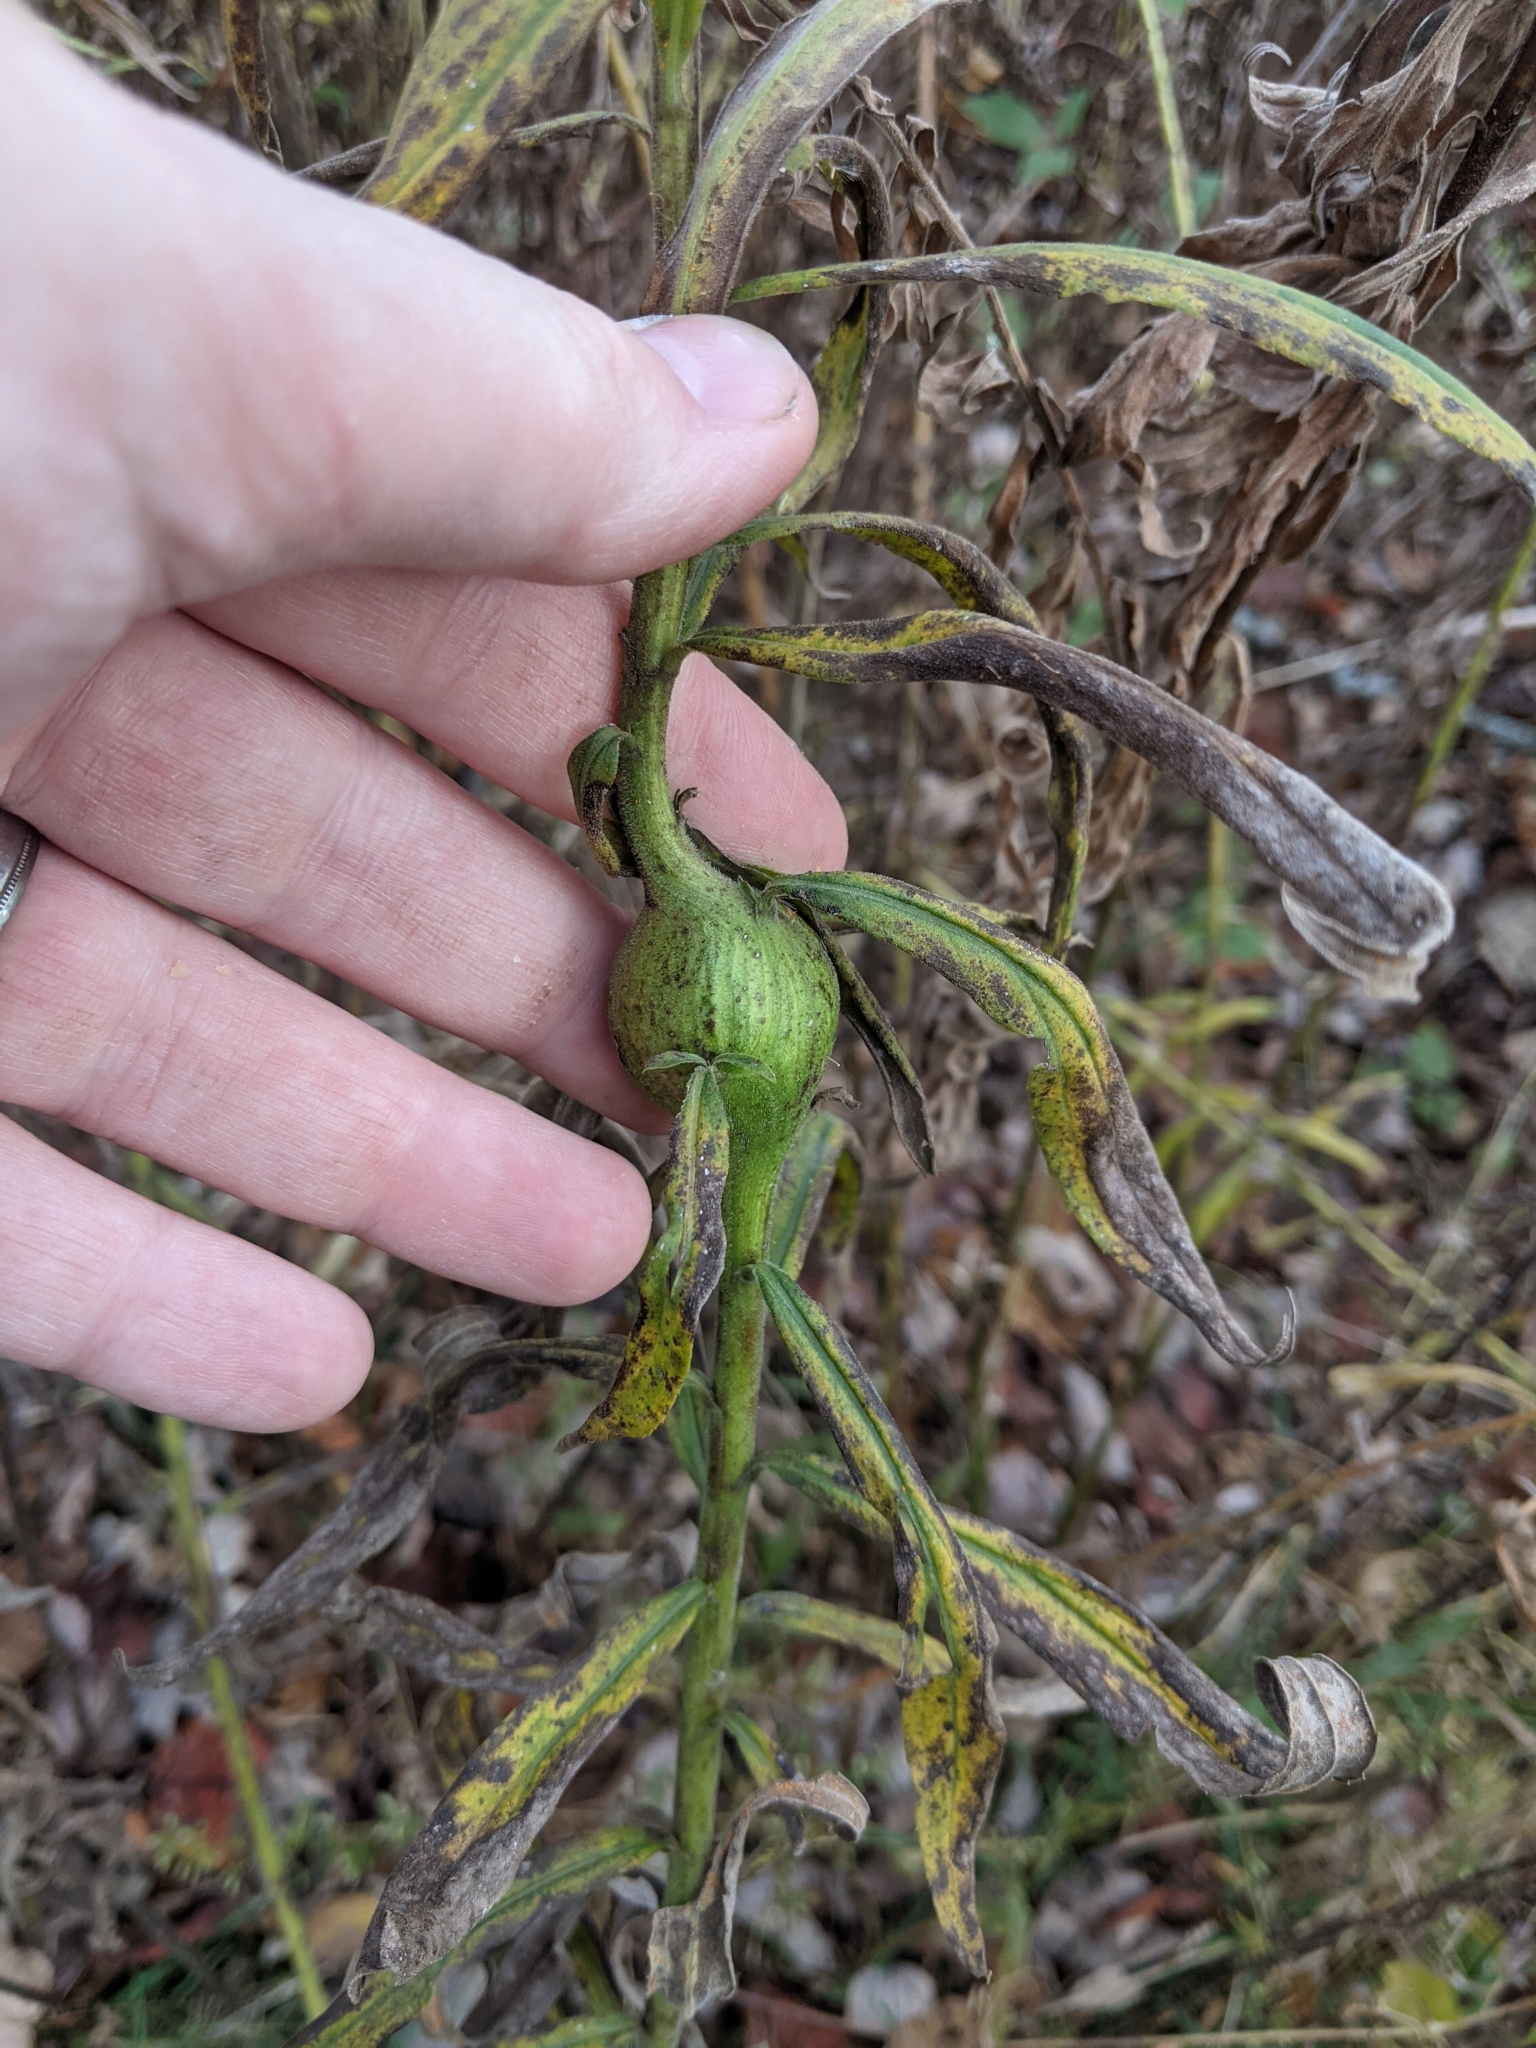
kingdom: Animalia
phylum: Arthropoda
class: Insecta
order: Diptera
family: Tephritidae
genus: Eurosta
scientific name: Eurosta solidaginis
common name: Goldenrod gall fly
